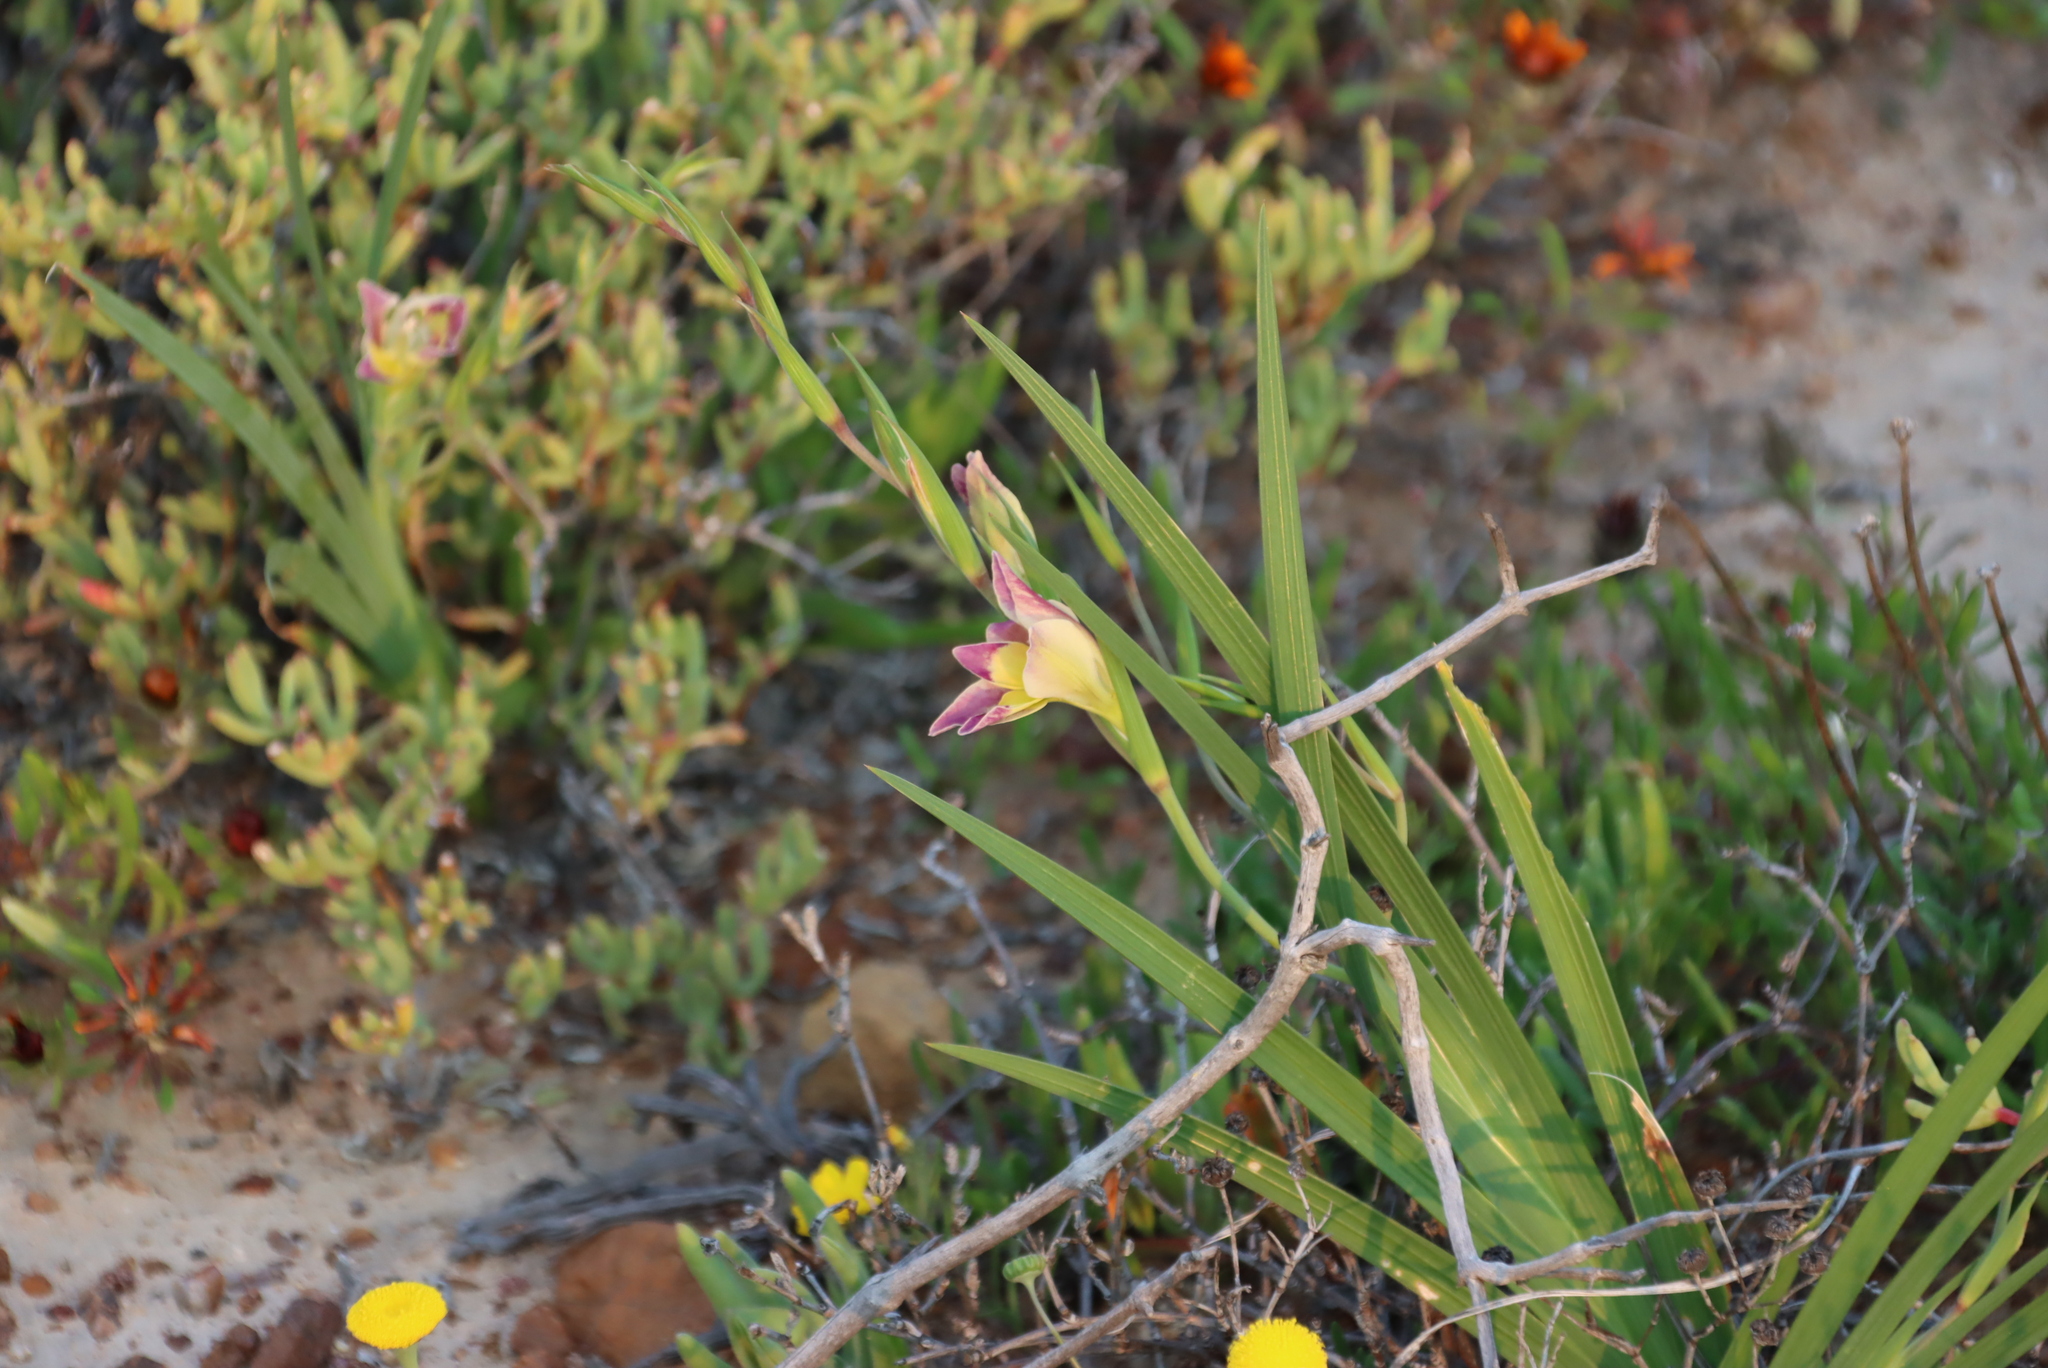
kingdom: Plantae
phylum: Tracheophyta
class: Liliopsida
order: Asparagales
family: Iridaceae
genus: Gladiolus
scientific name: Gladiolus scullyi
